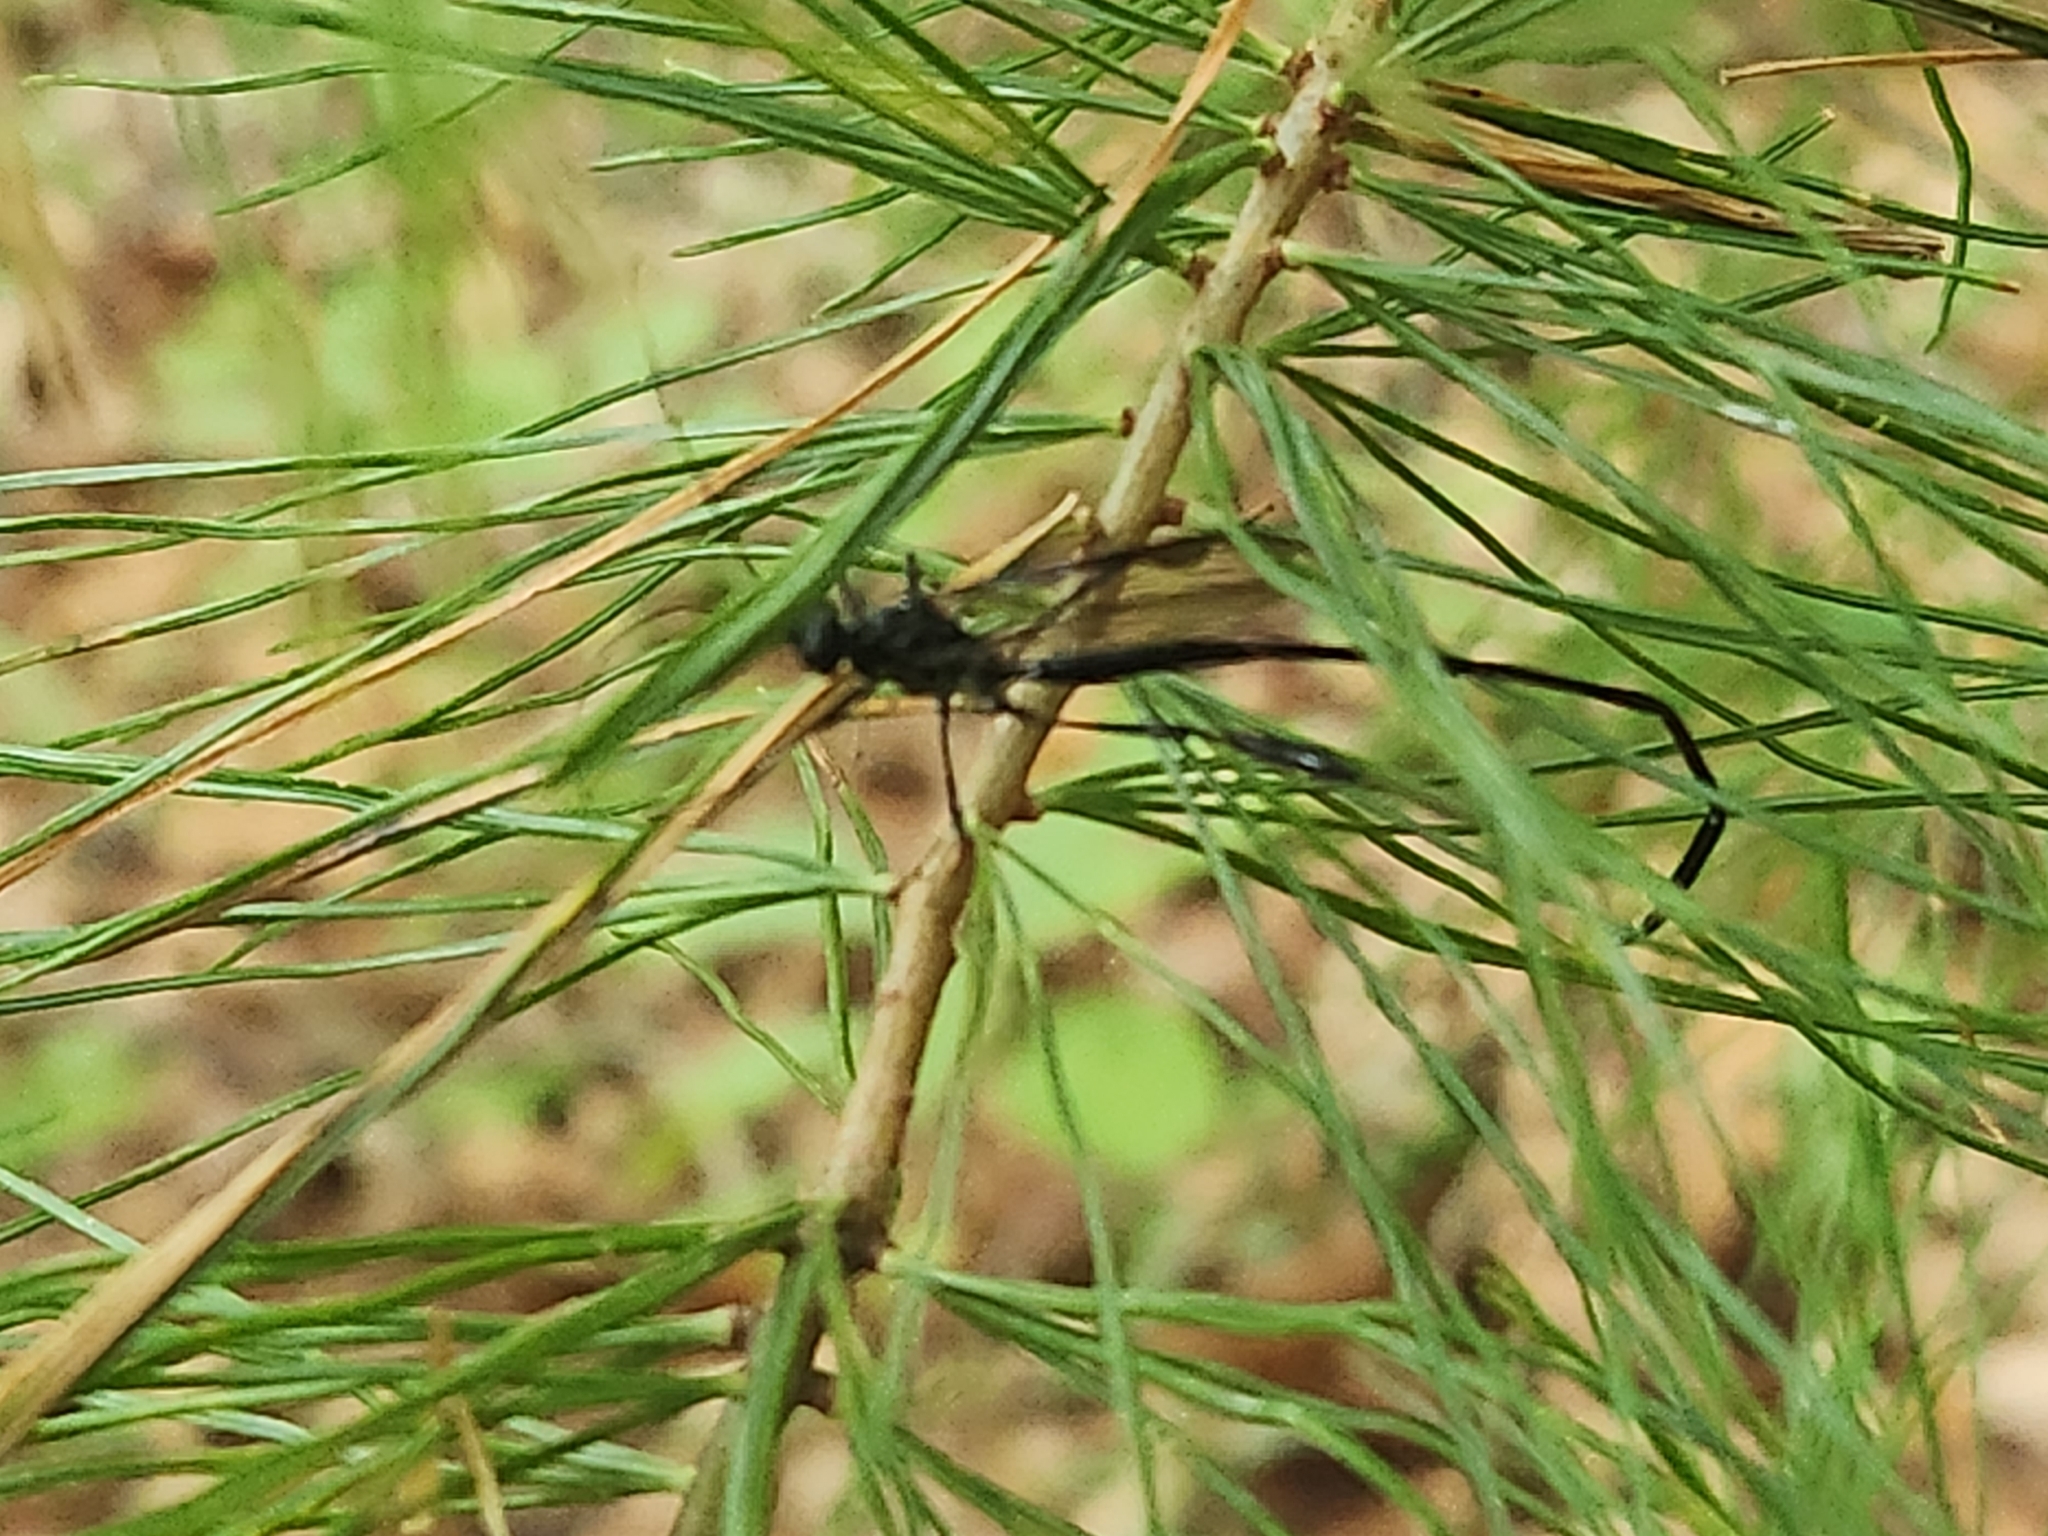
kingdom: Animalia
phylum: Arthropoda
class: Insecta
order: Hymenoptera
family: Pelecinidae
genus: Pelecinus
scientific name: Pelecinus polyturator
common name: American pelecinid wasp
